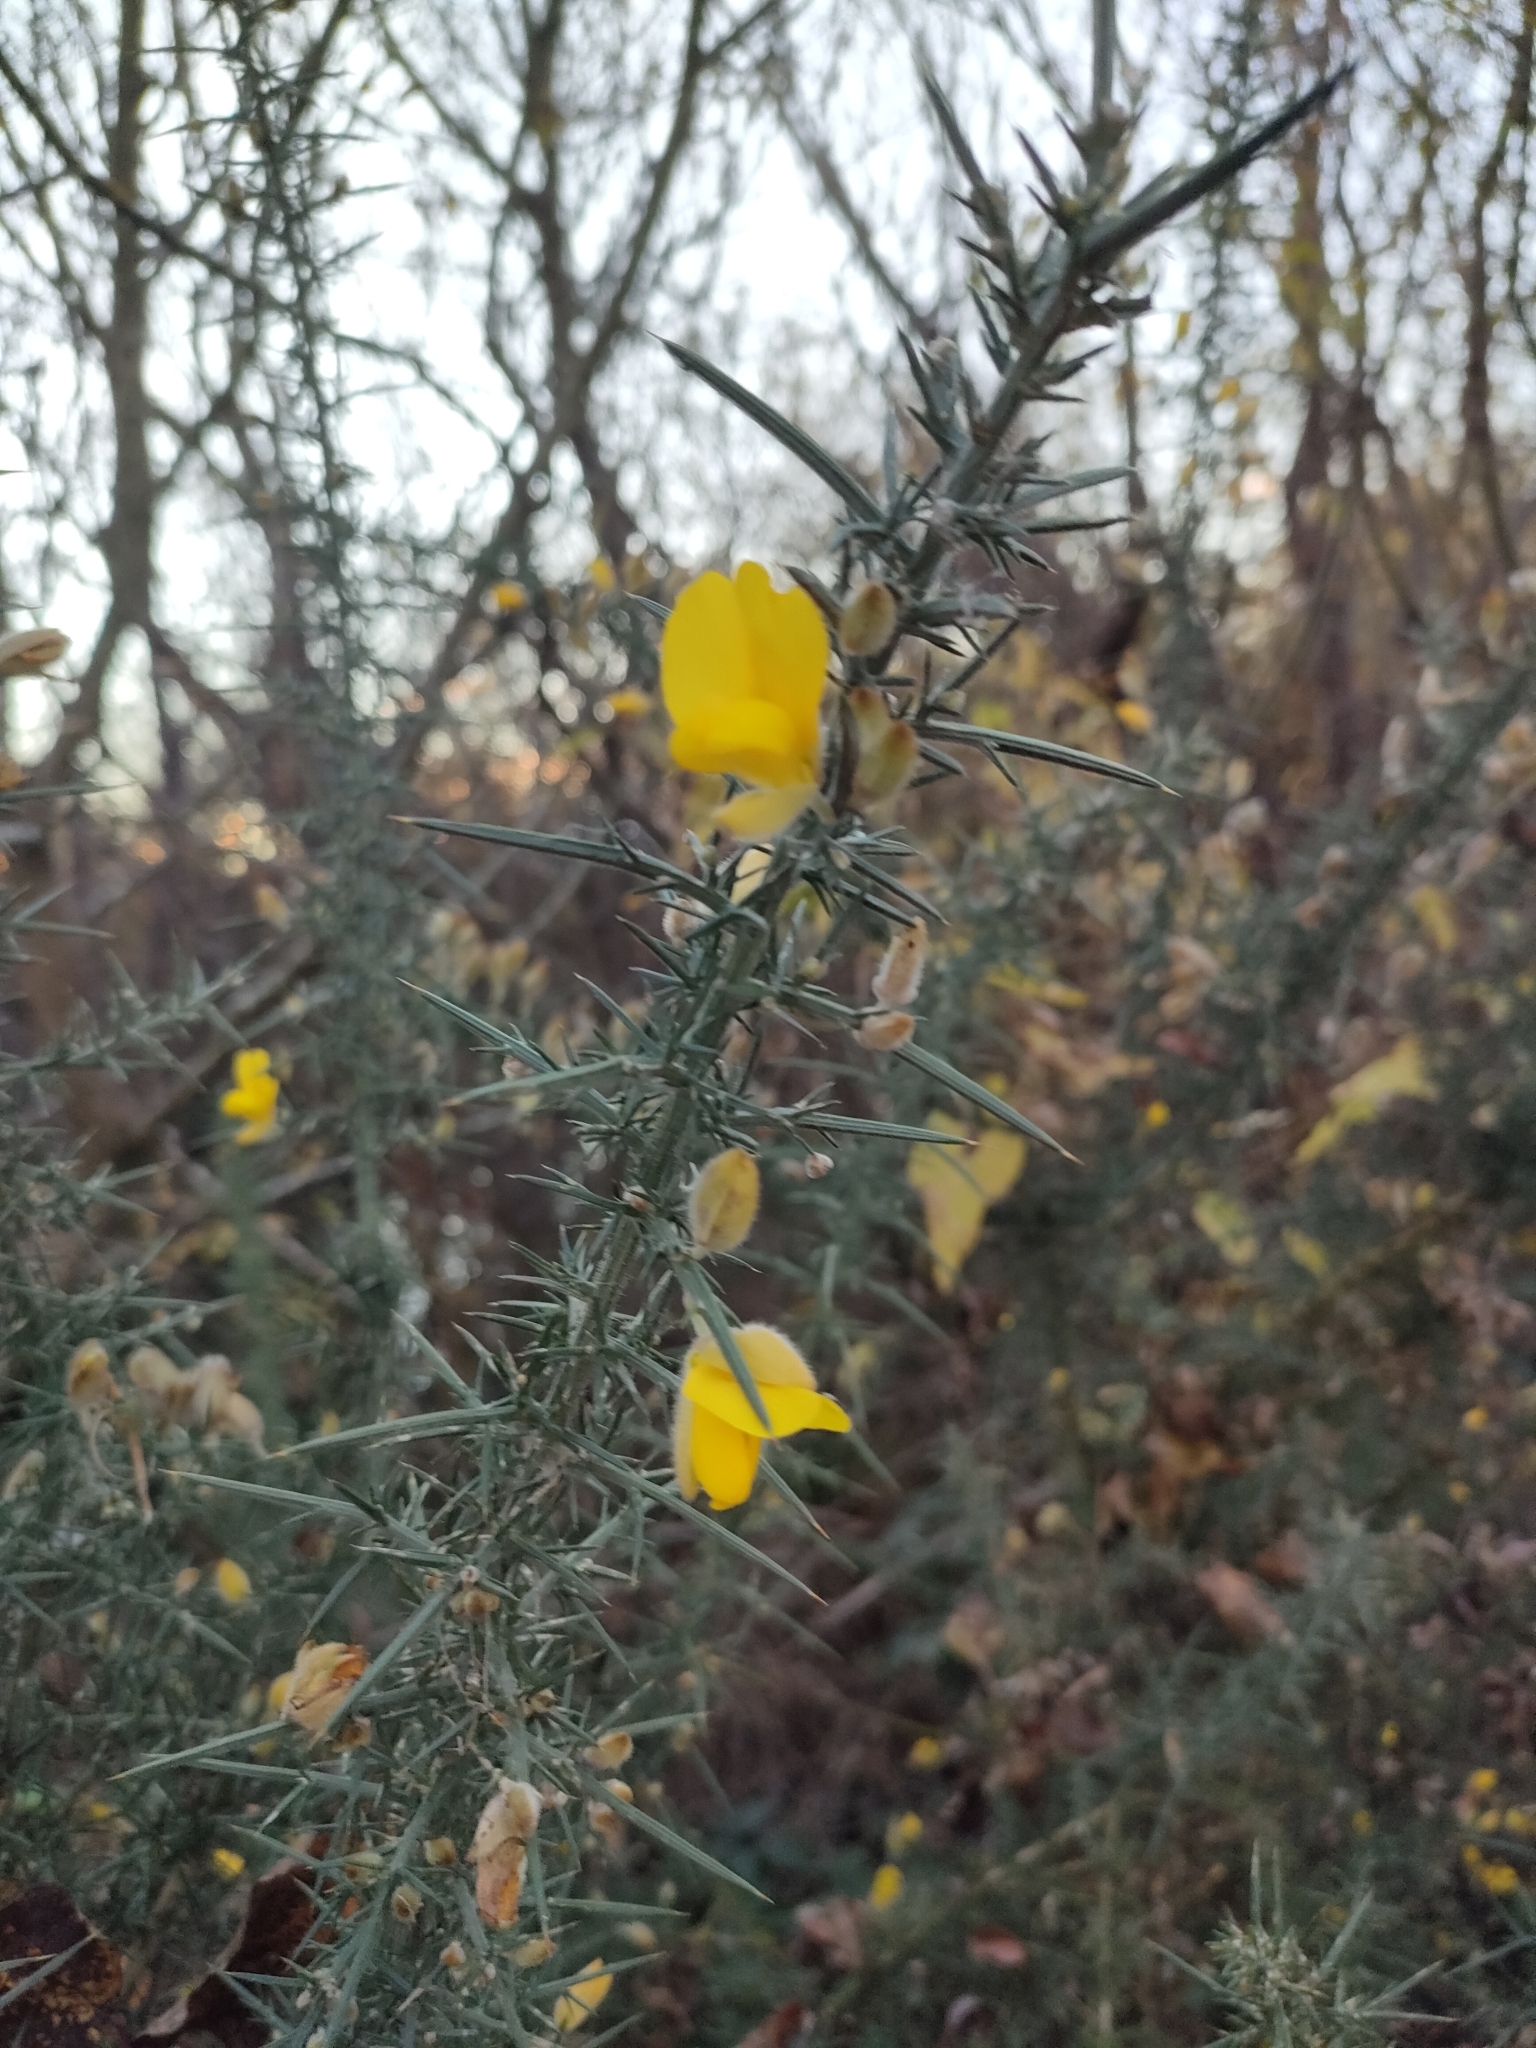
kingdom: Plantae
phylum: Tracheophyta
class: Magnoliopsida
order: Fabales
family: Fabaceae
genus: Ulex
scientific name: Ulex europaeus
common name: Common gorse
